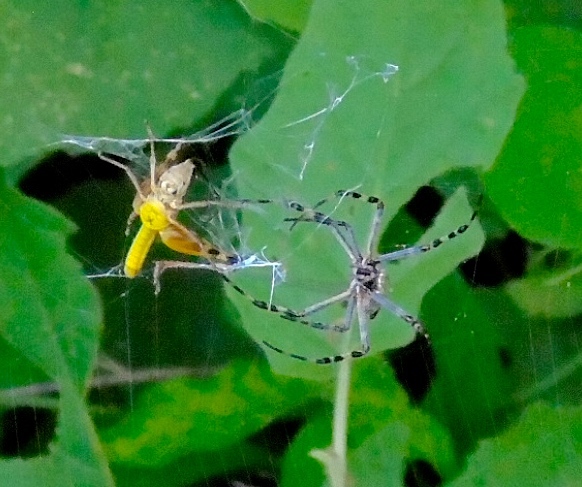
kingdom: Animalia
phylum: Arthropoda
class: Arachnida
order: Araneae
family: Araneidae
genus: Argiope
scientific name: Argiope
